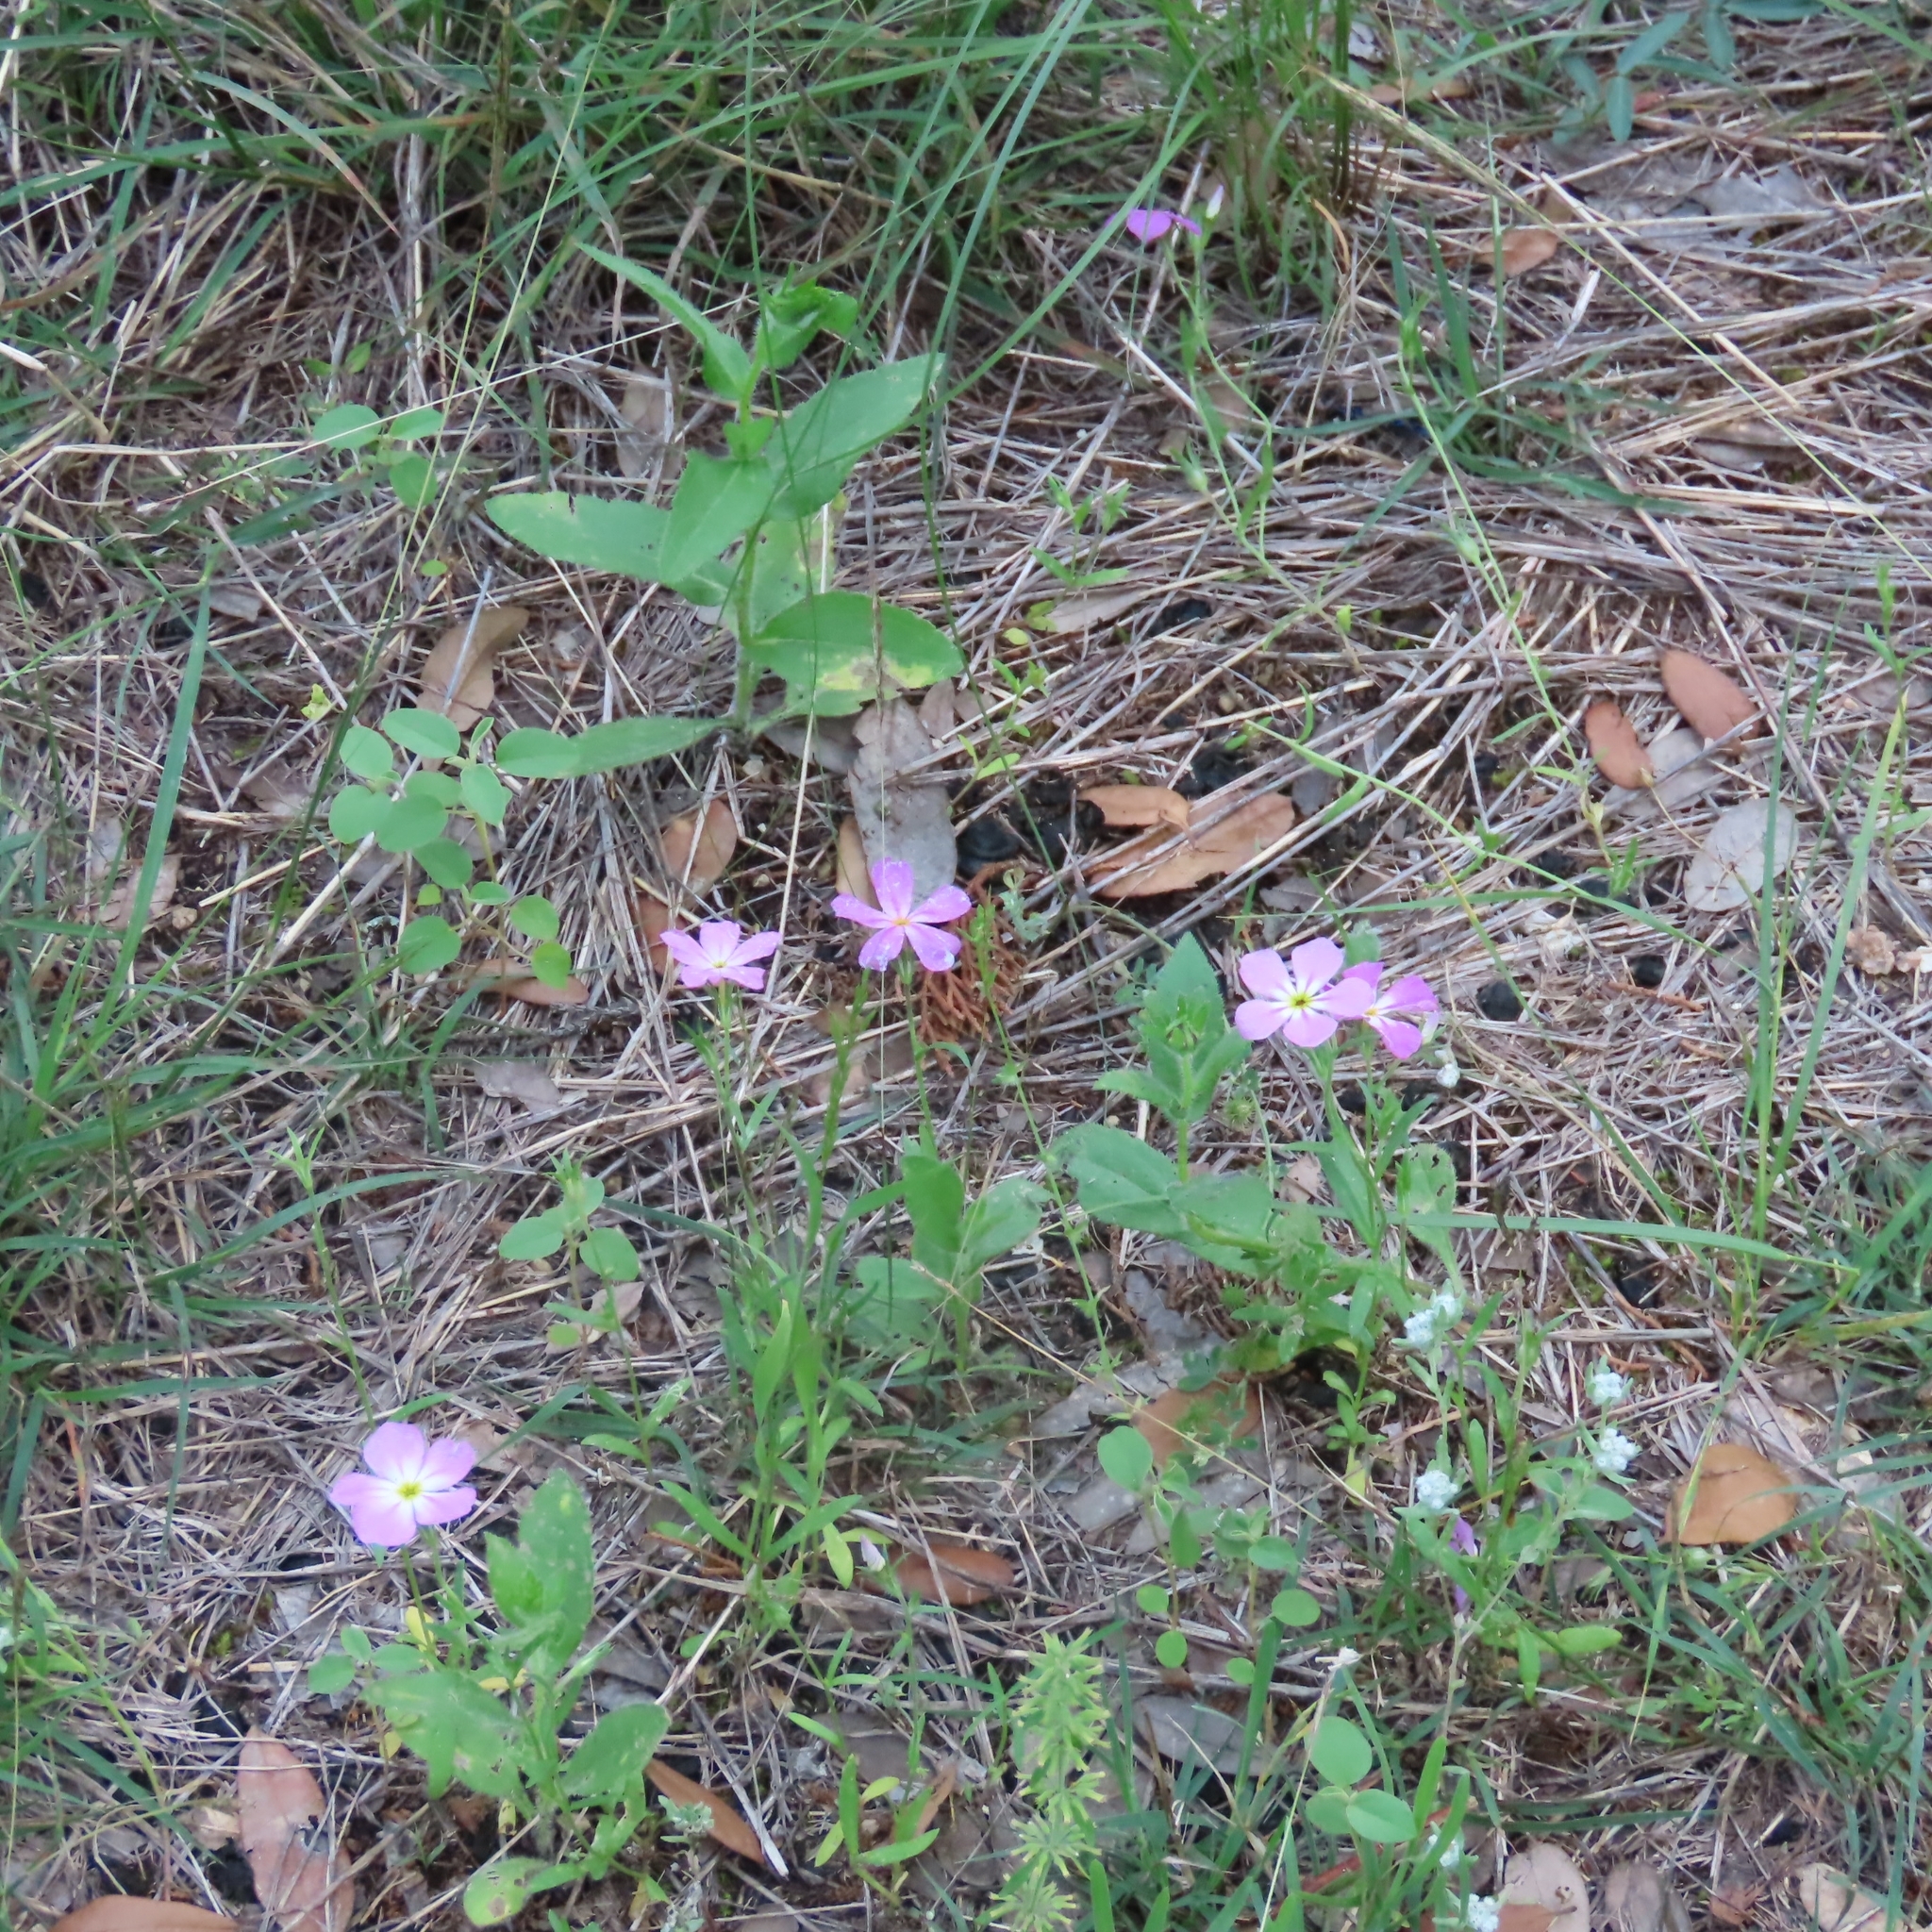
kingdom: Plantae
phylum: Tracheophyta
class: Magnoliopsida
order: Ericales
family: Polemoniaceae
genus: Phlox
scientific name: Phlox roemeriana
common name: Roemer's phlox
